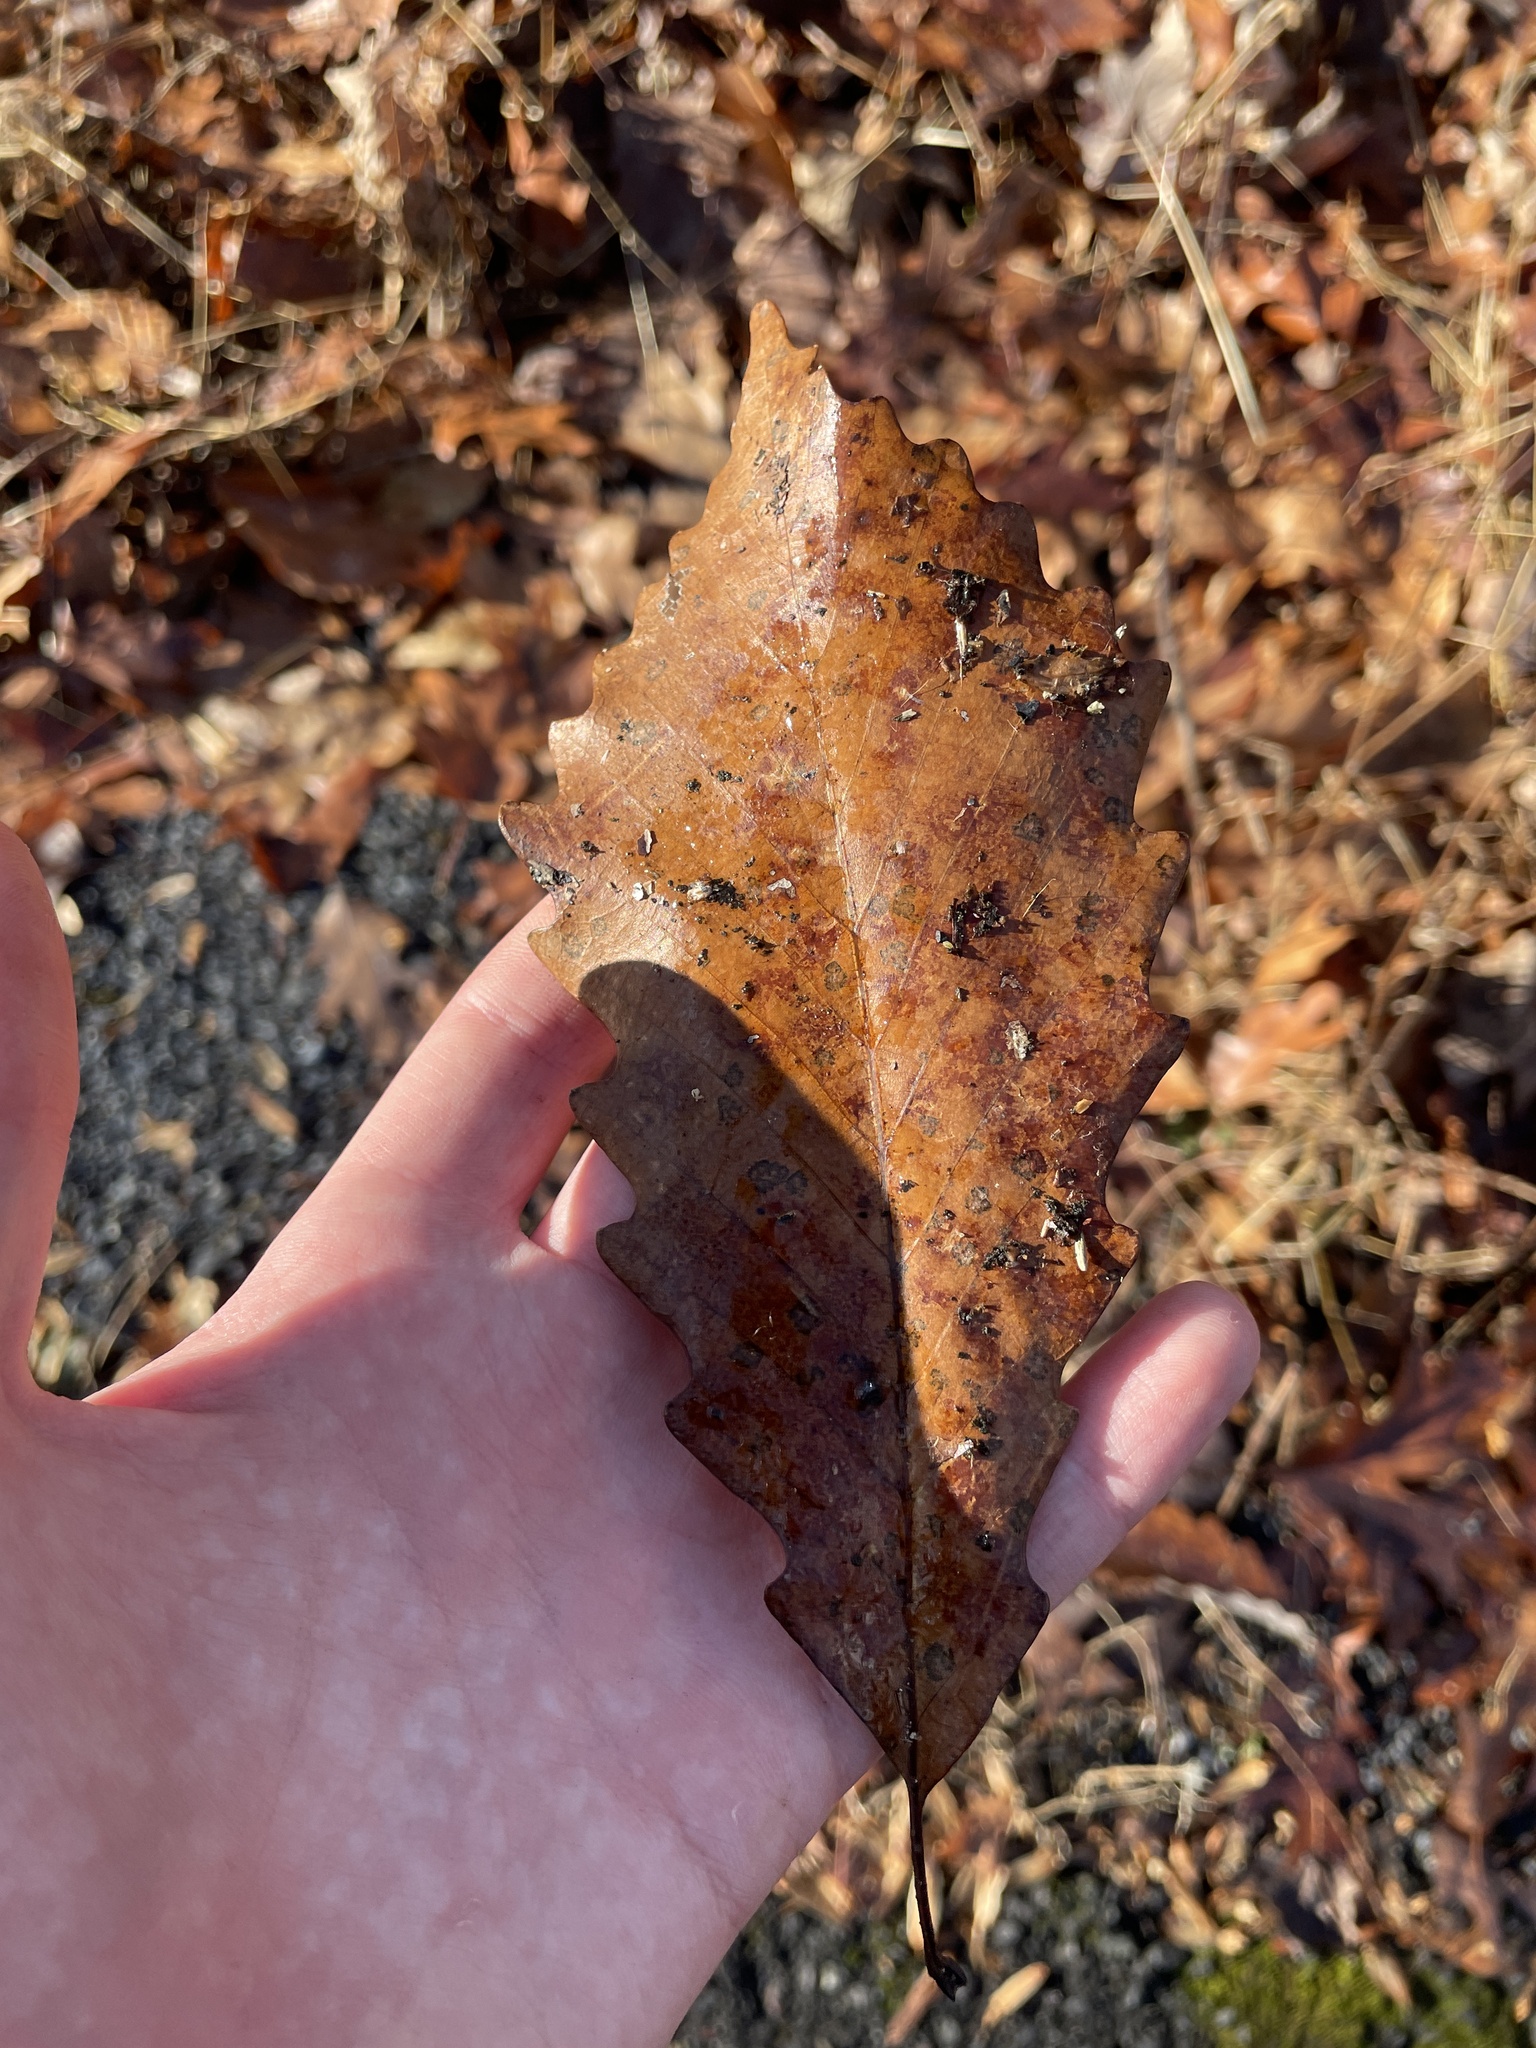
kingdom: Plantae
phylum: Tracheophyta
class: Magnoliopsida
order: Fagales
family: Fagaceae
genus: Quercus
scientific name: Quercus montana
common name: Chestnut oak
